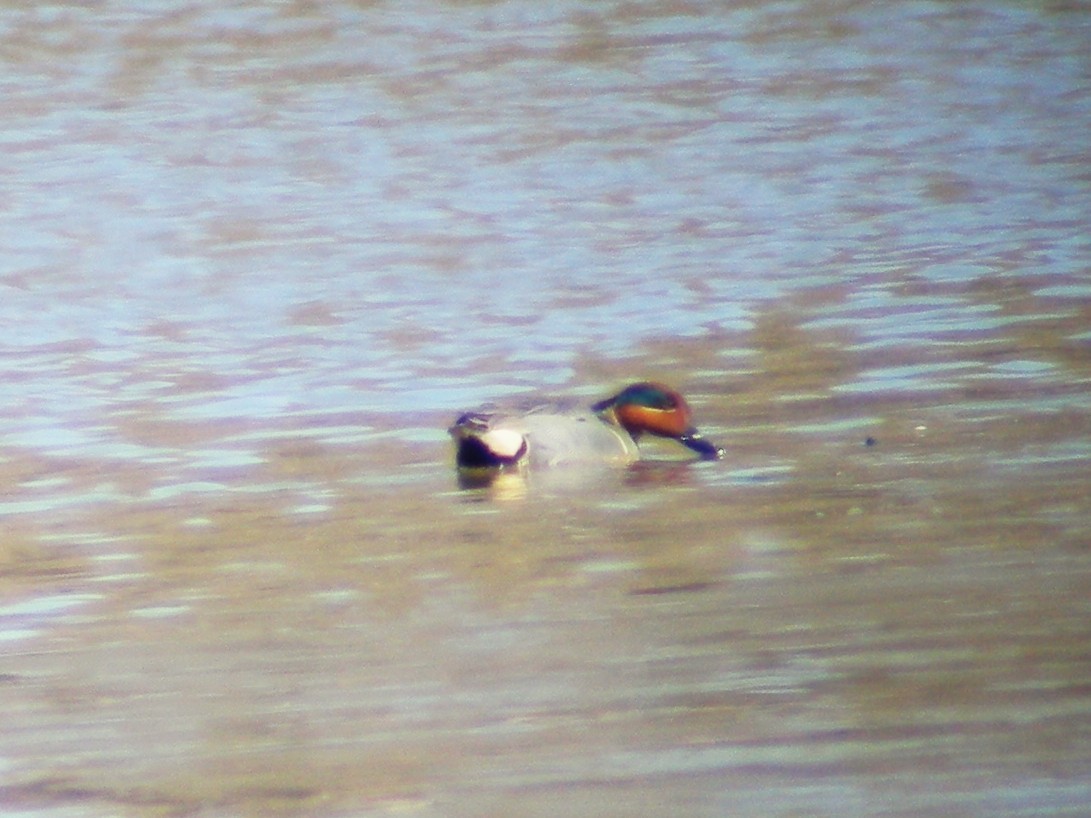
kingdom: Animalia
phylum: Chordata
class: Aves
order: Anseriformes
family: Anatidae
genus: Anas
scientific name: Anas crecca
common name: Eurasian teal
